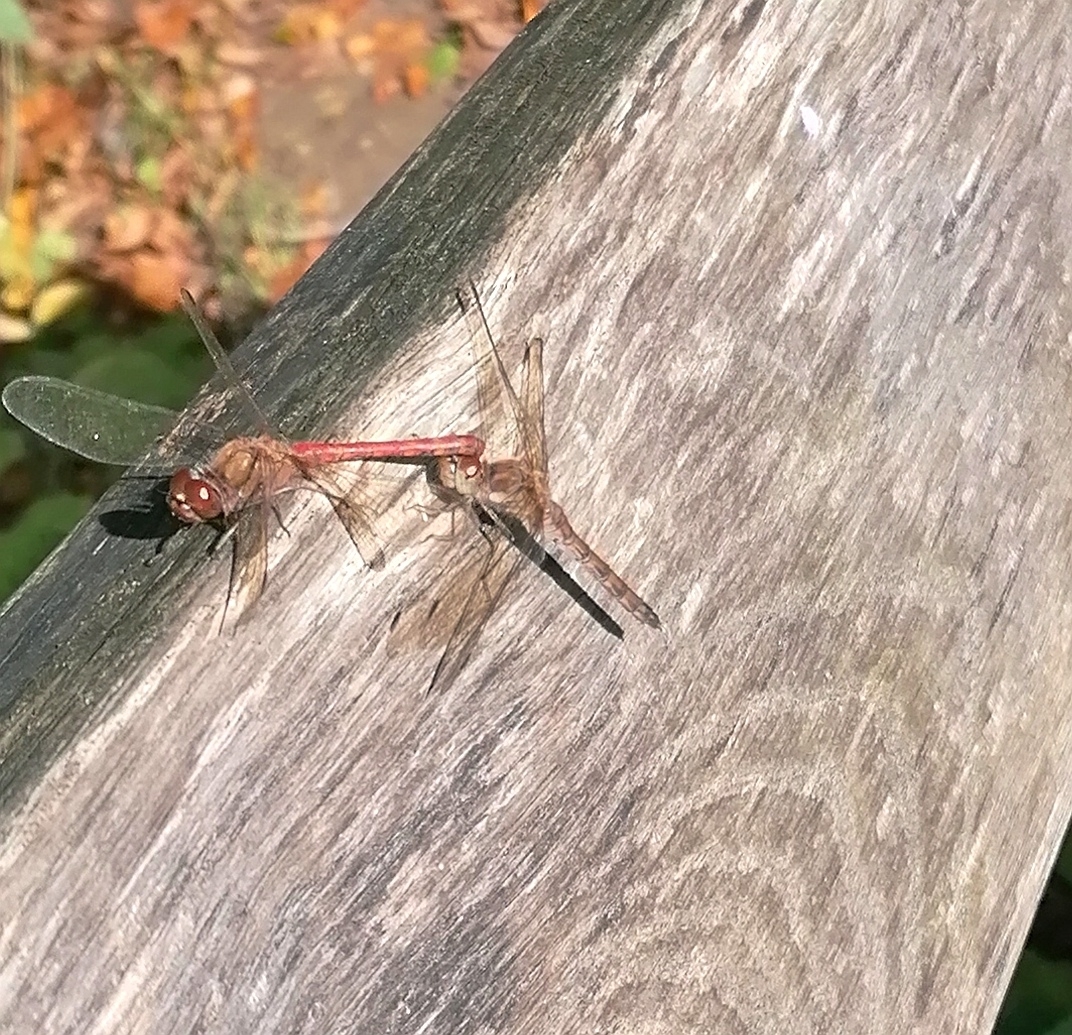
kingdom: Animalia
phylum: Arthropoda
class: Insecta
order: Odonata
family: Libellulidae
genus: Sympetrum
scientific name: Sympetrum vulgatum
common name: Vagrant darter
